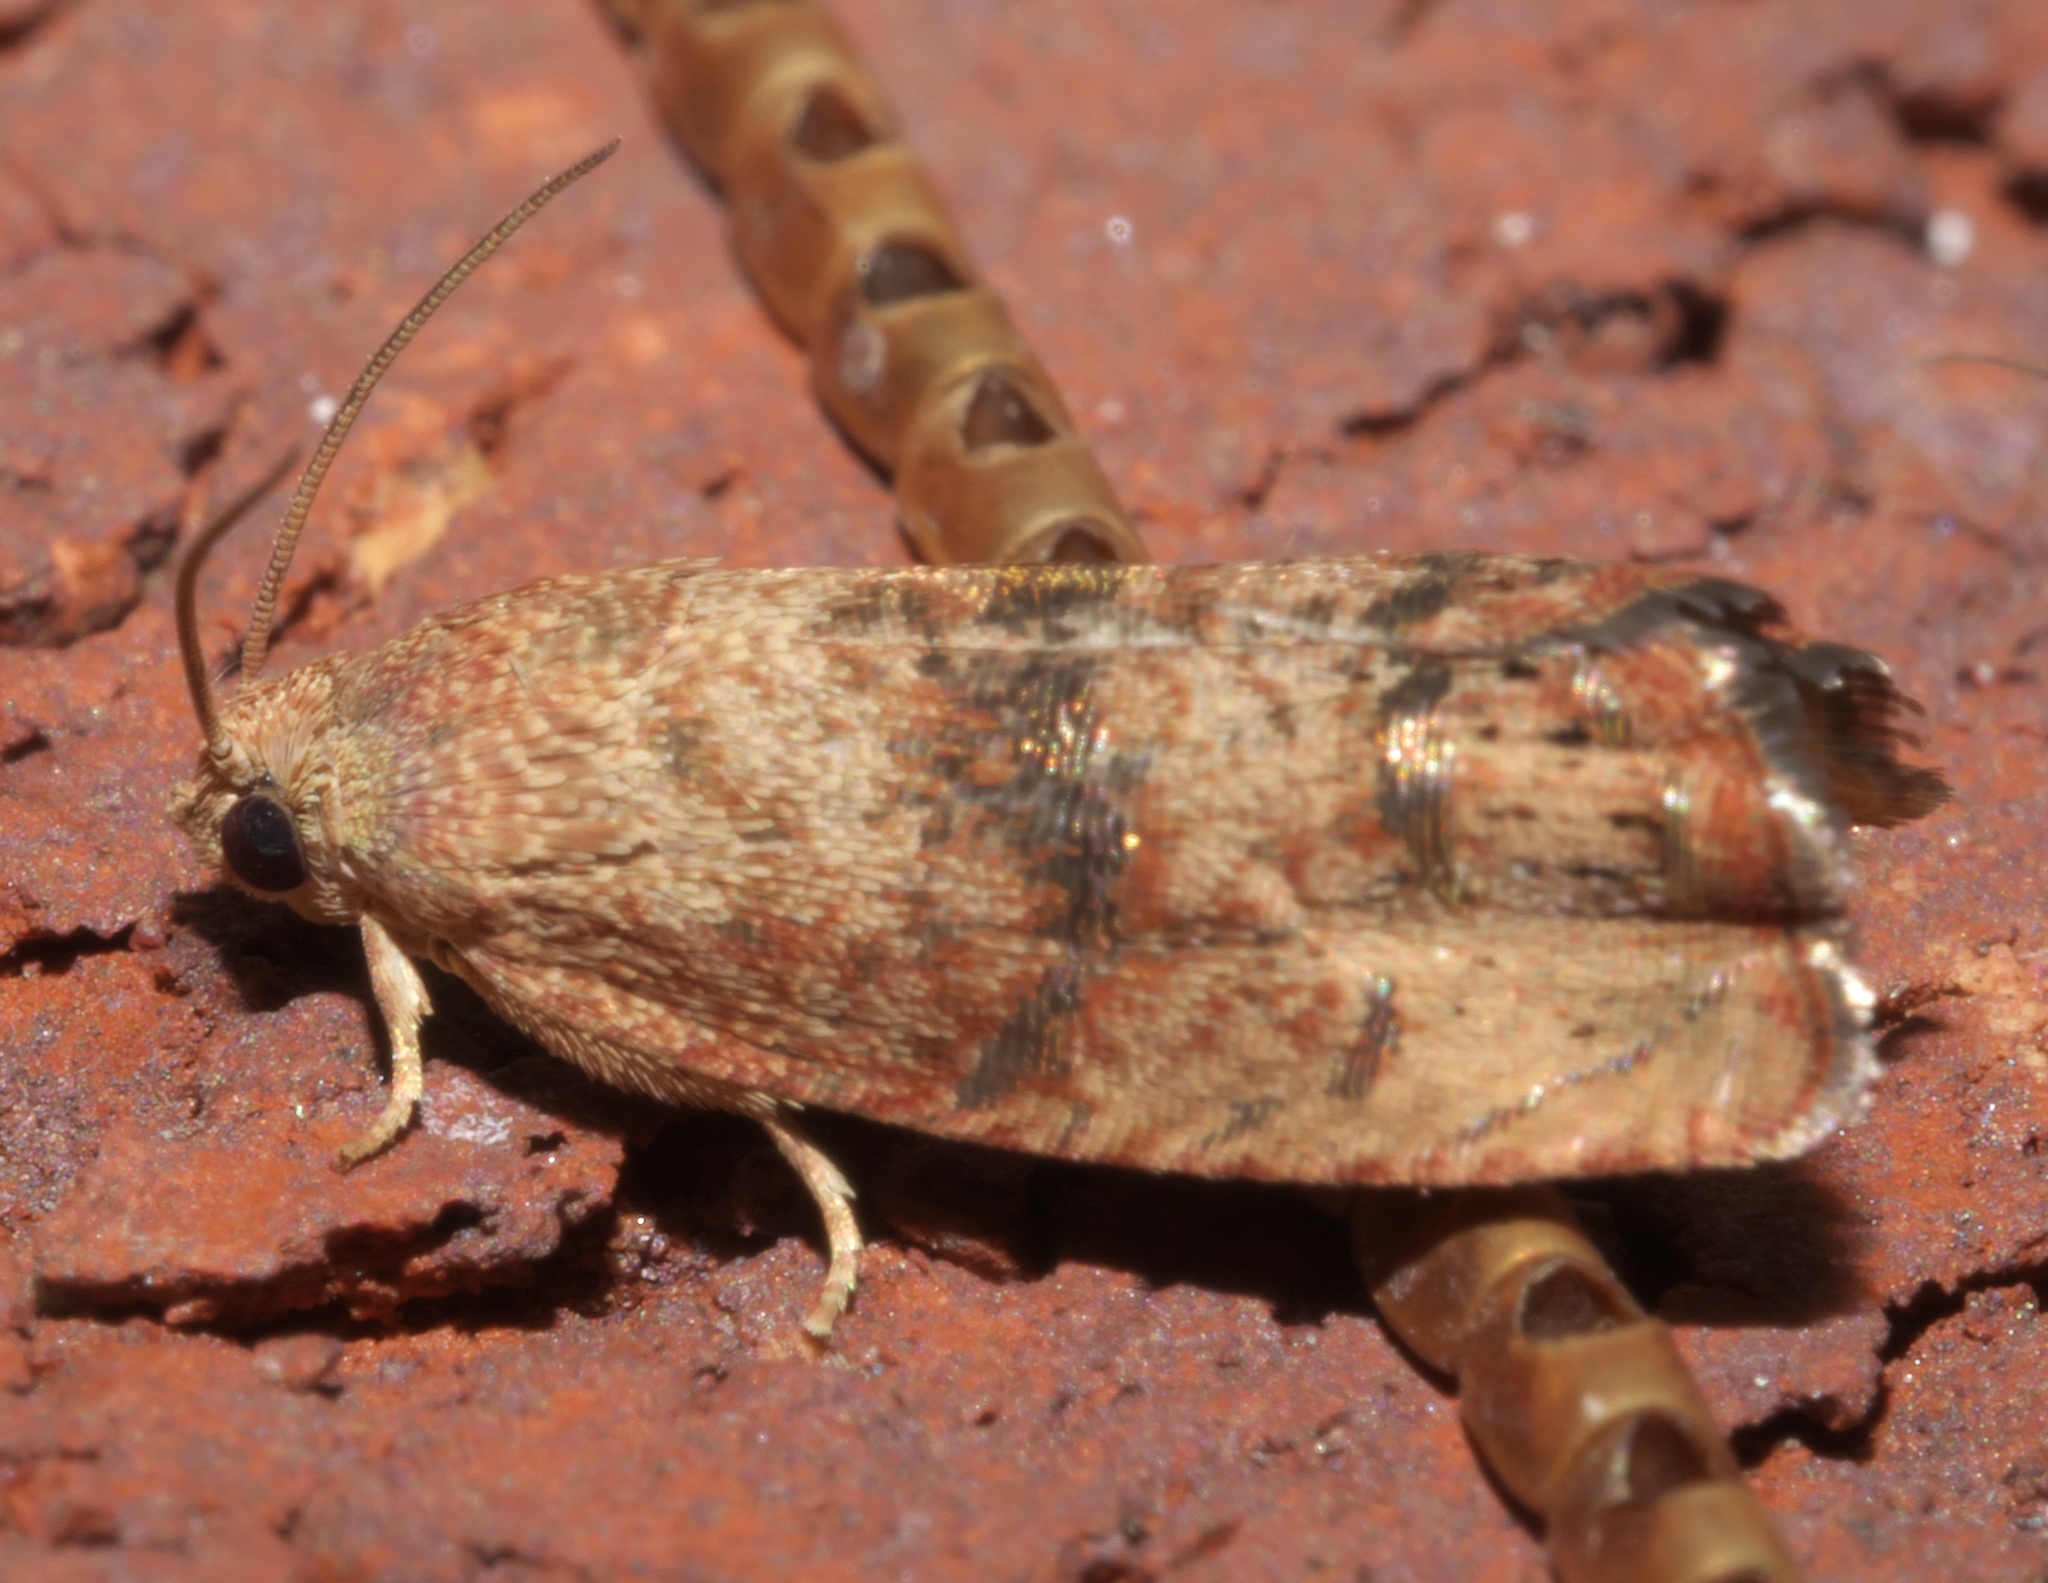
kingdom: Animalia
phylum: Arthropoda
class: Insecta
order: Lepidoptera
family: Tortricidae
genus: Cydia
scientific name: Cydia latiferreana
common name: Filbertworm moth
